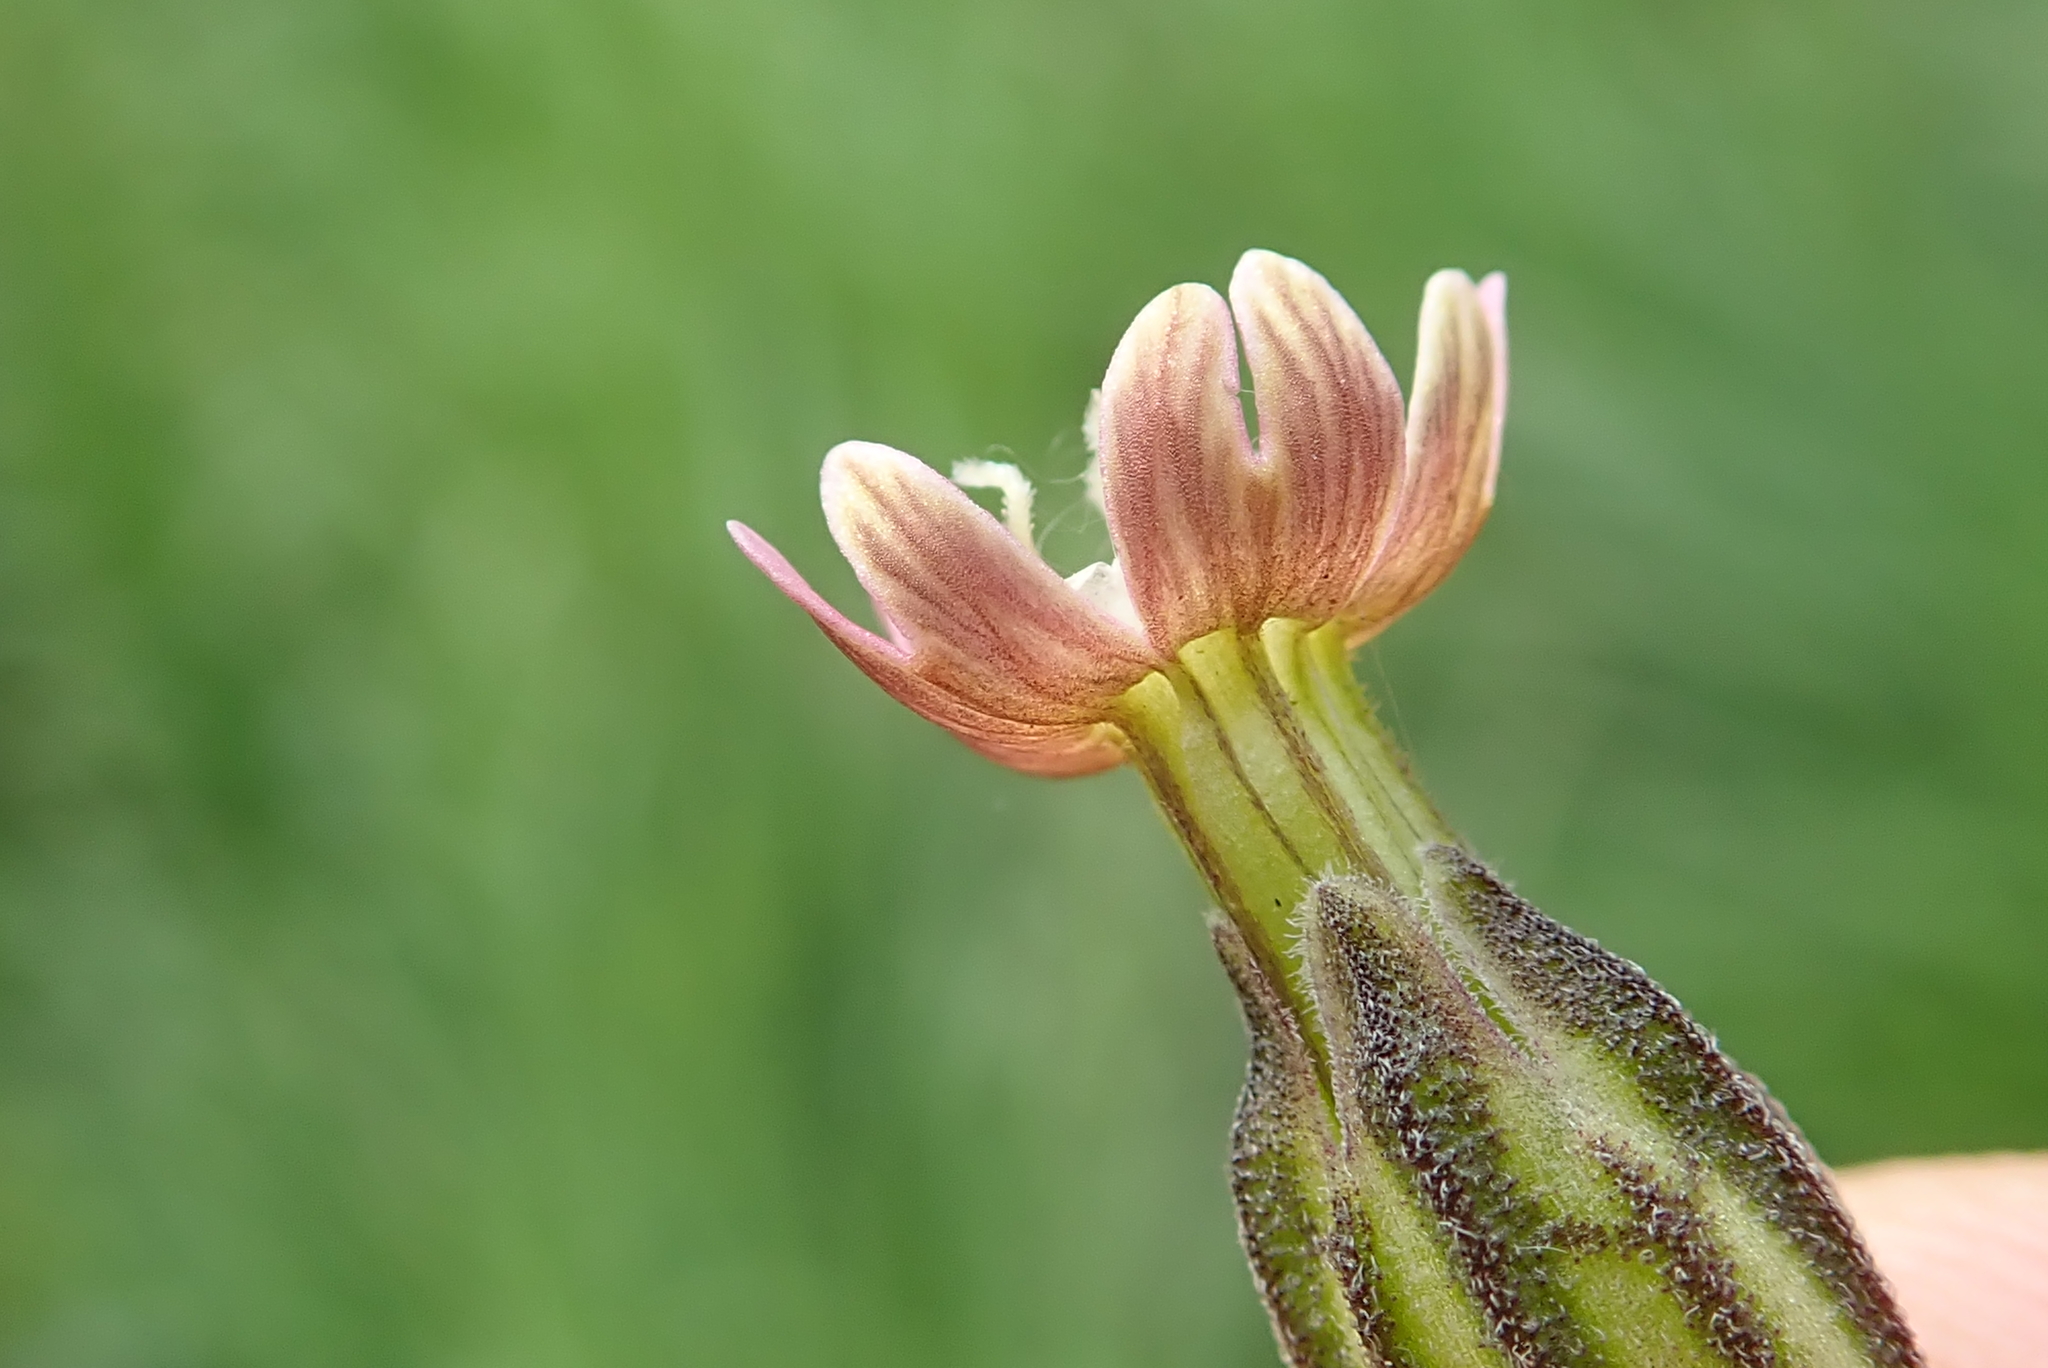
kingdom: Plantae
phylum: Tracheophyta
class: Magnoliopsida
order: Caryophyllales
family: Caryophyllaceae
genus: Silene
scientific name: Silene burchellii
